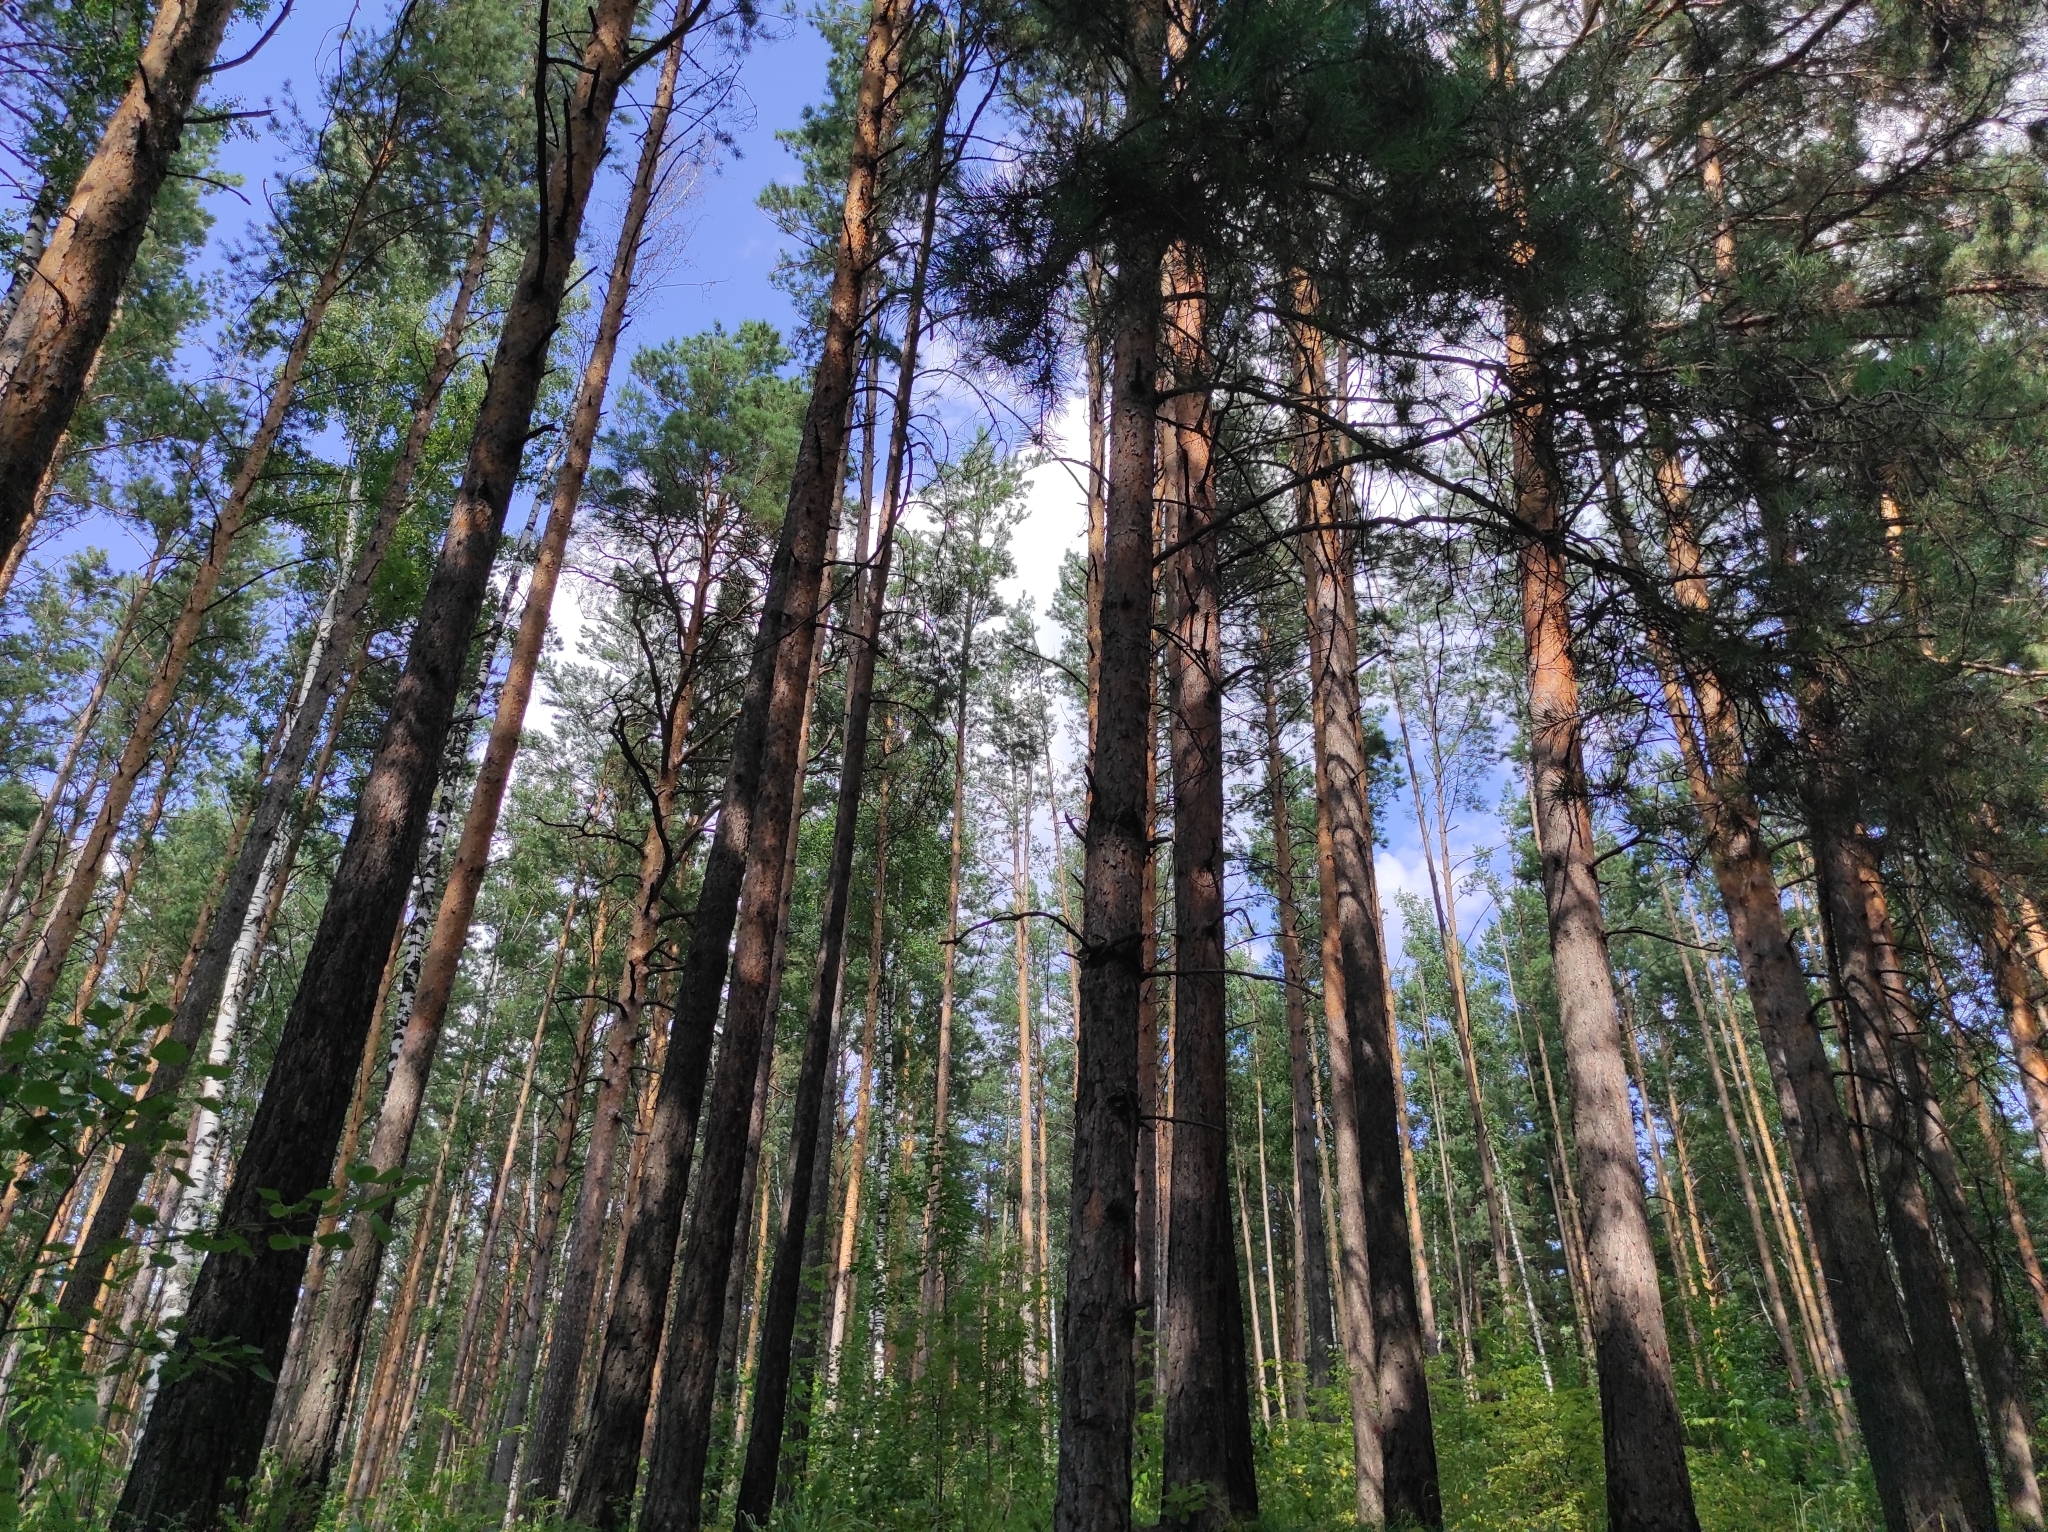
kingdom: Plantae
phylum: Tracheophyta
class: Pinopsida
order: Pinales
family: Pinaceae
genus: Pinus
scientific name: Pinus sylvestris
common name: Scots pine
